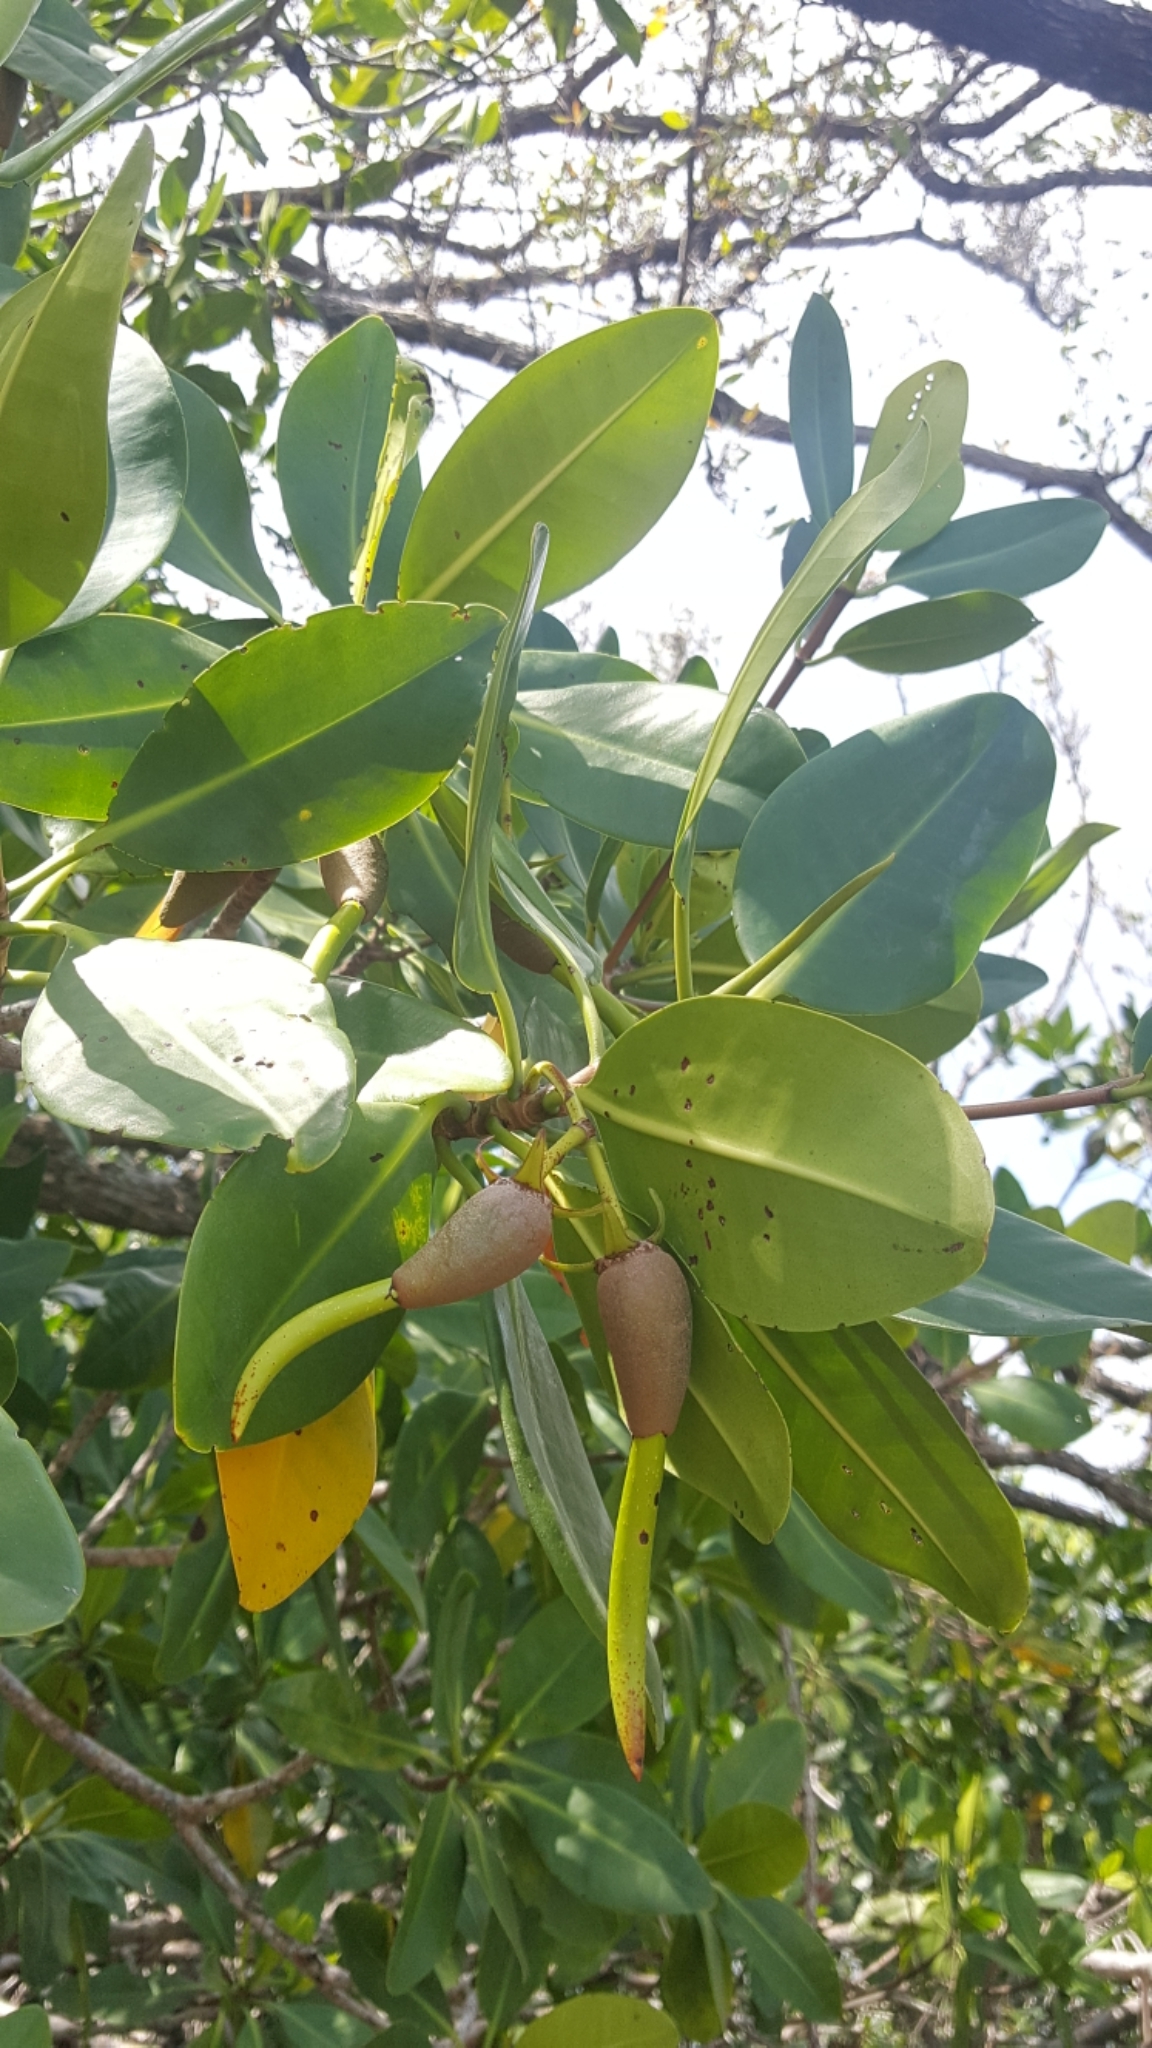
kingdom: Plantae
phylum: Tracheophyta
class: Magnoliopsida
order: Malpighiales
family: Rhizophoraceae
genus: Rhizophora
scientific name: Rhizophora mangle
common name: Red mangrove
